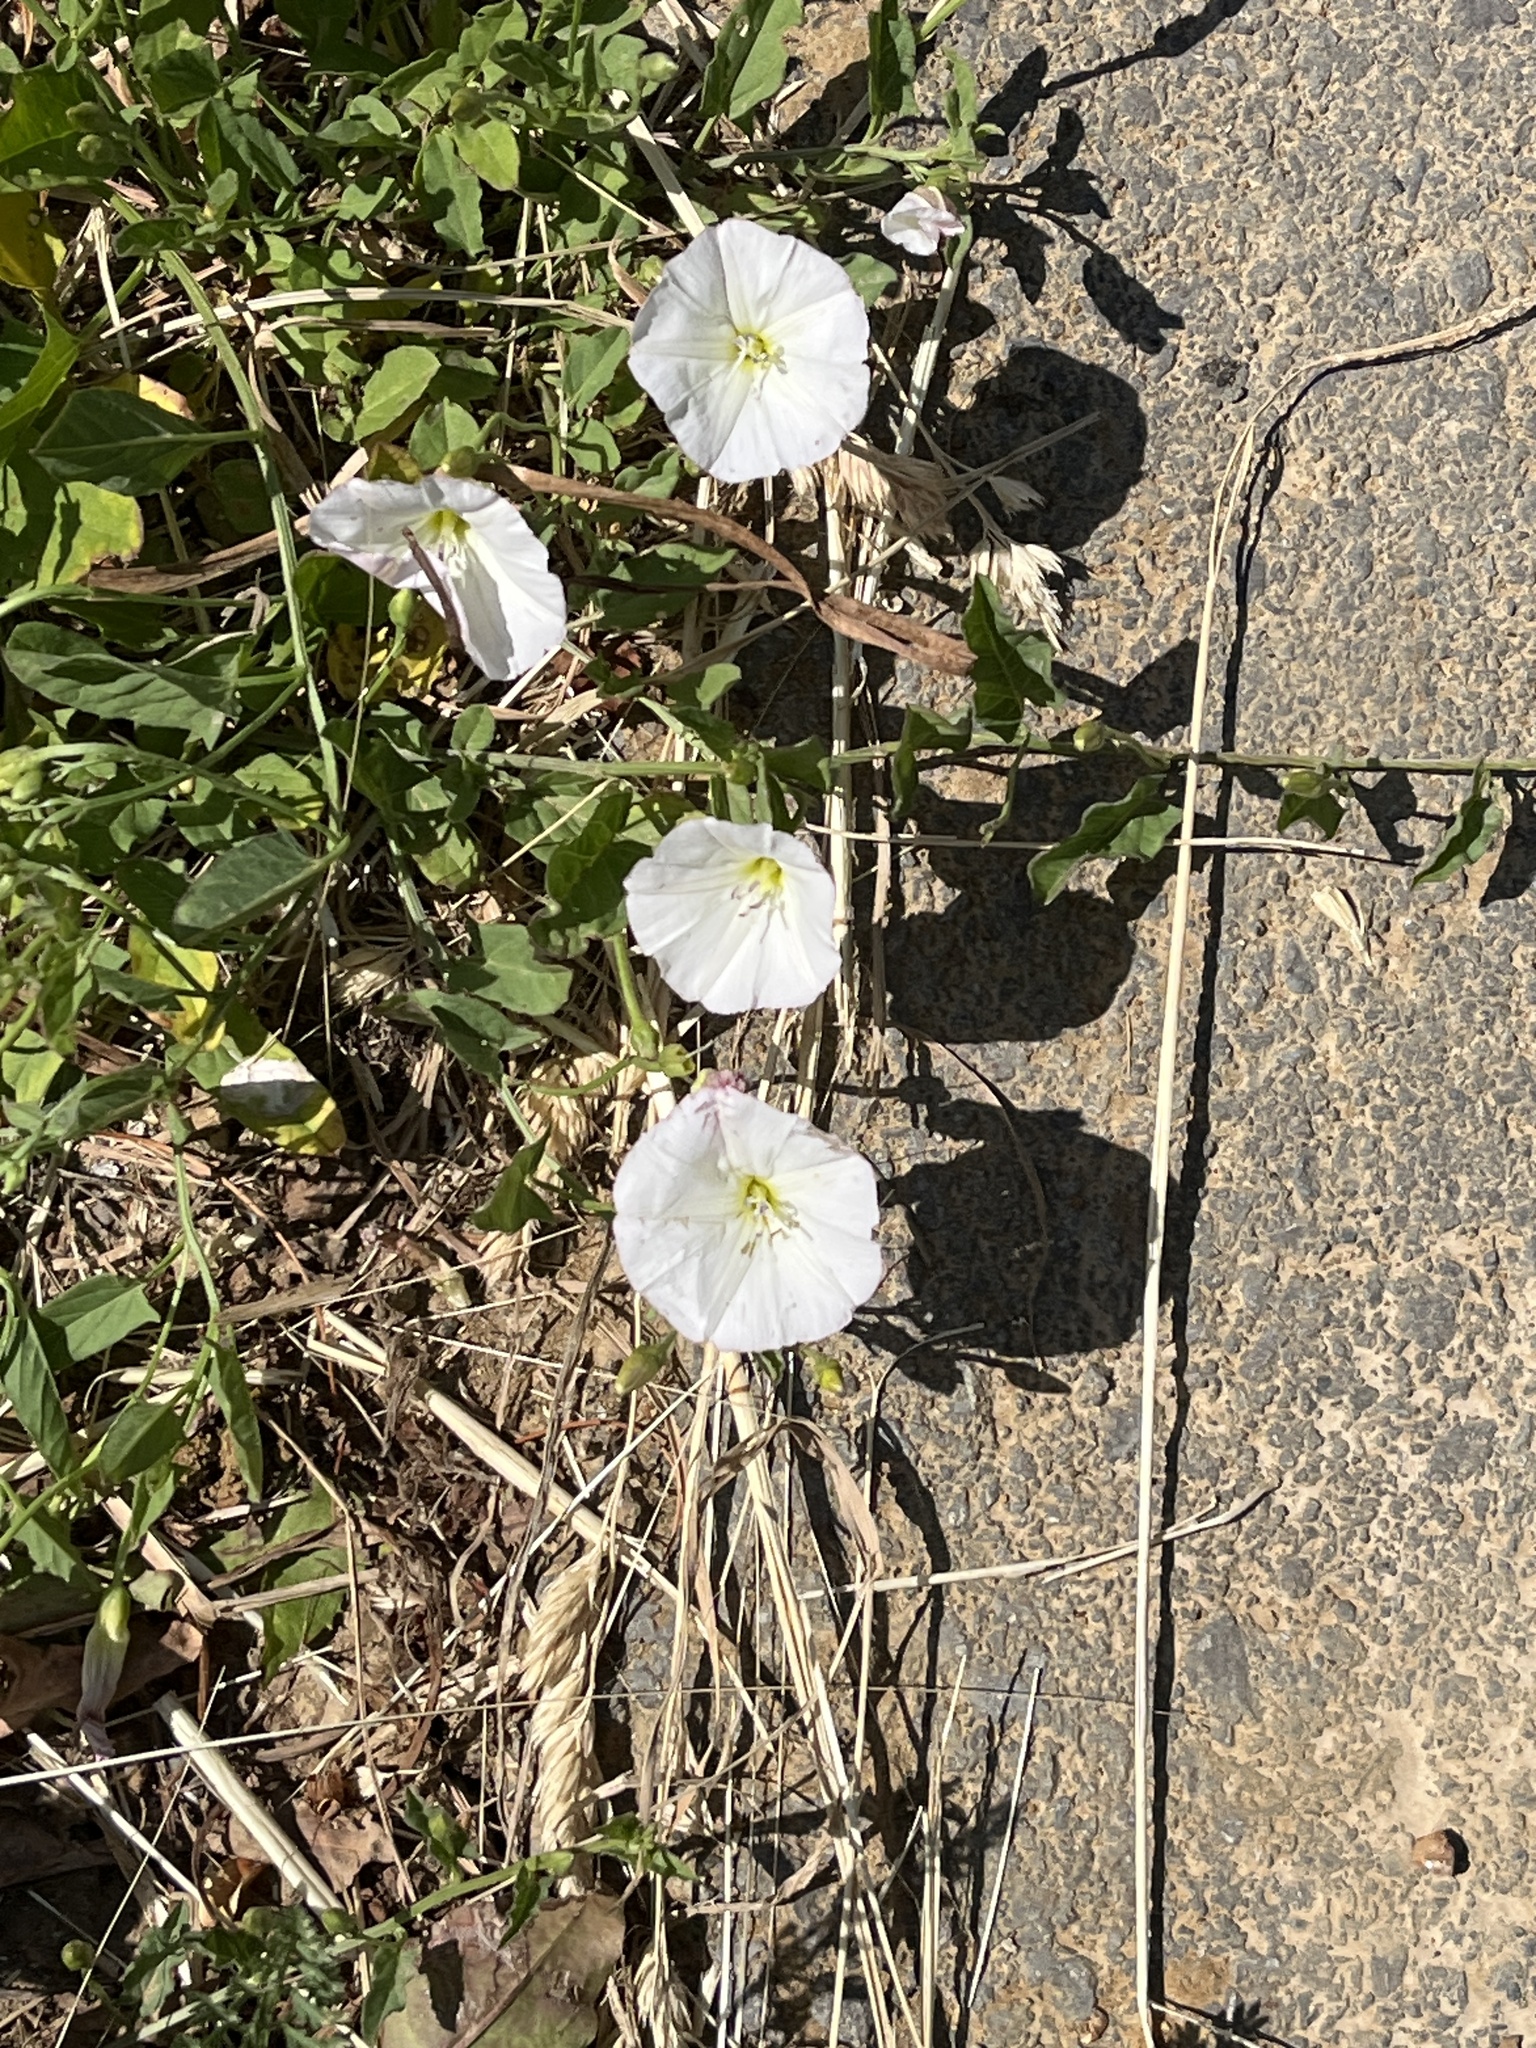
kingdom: Plantae
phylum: Tracheophyta
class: Magnoliopsida
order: Solanales
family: Convolvulaceae
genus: Convolvulus
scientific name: Convolvulus arvensis
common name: Field bindweed
